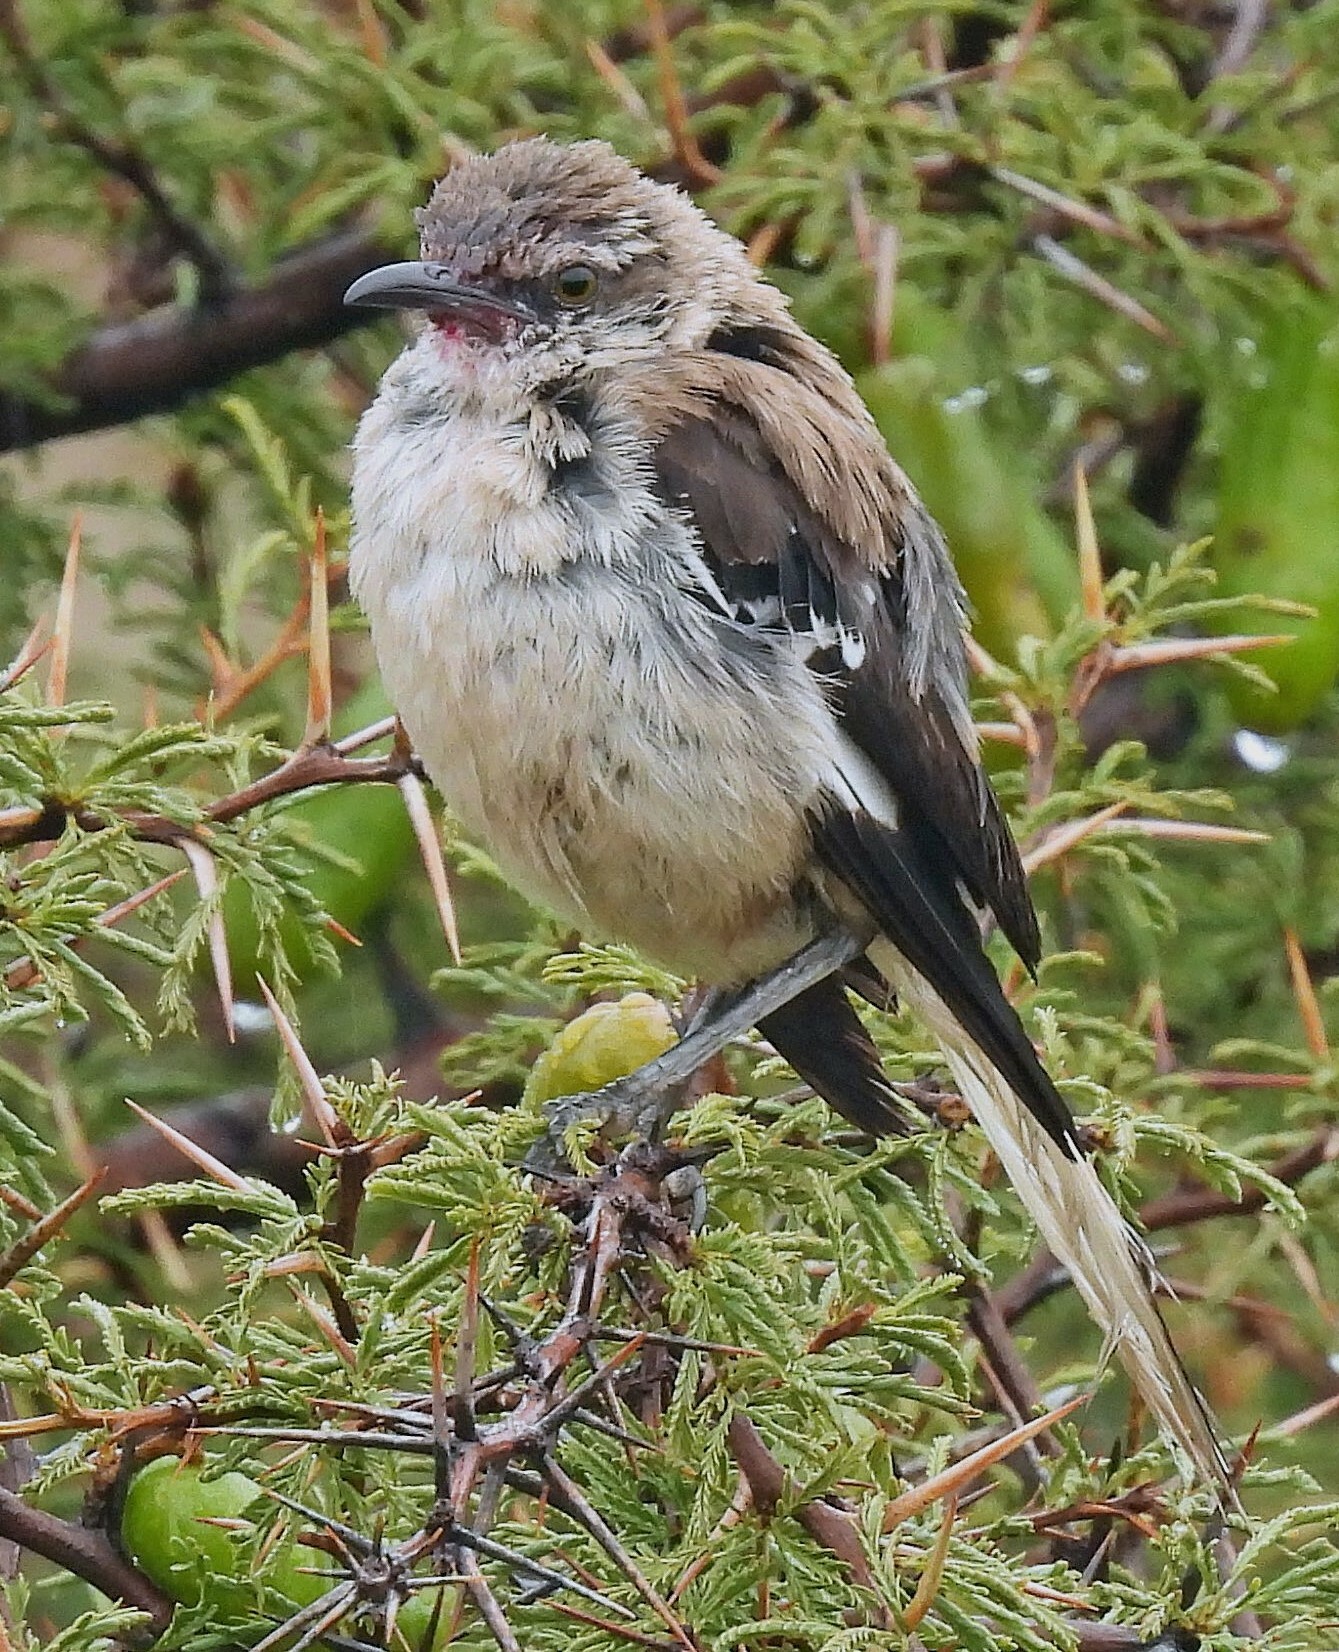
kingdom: Animalia
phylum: Chordata
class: Aves
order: Passeriformes
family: Mimidae
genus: Mimus
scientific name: Mimus dorsalis
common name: Brown-backed mockingbird
